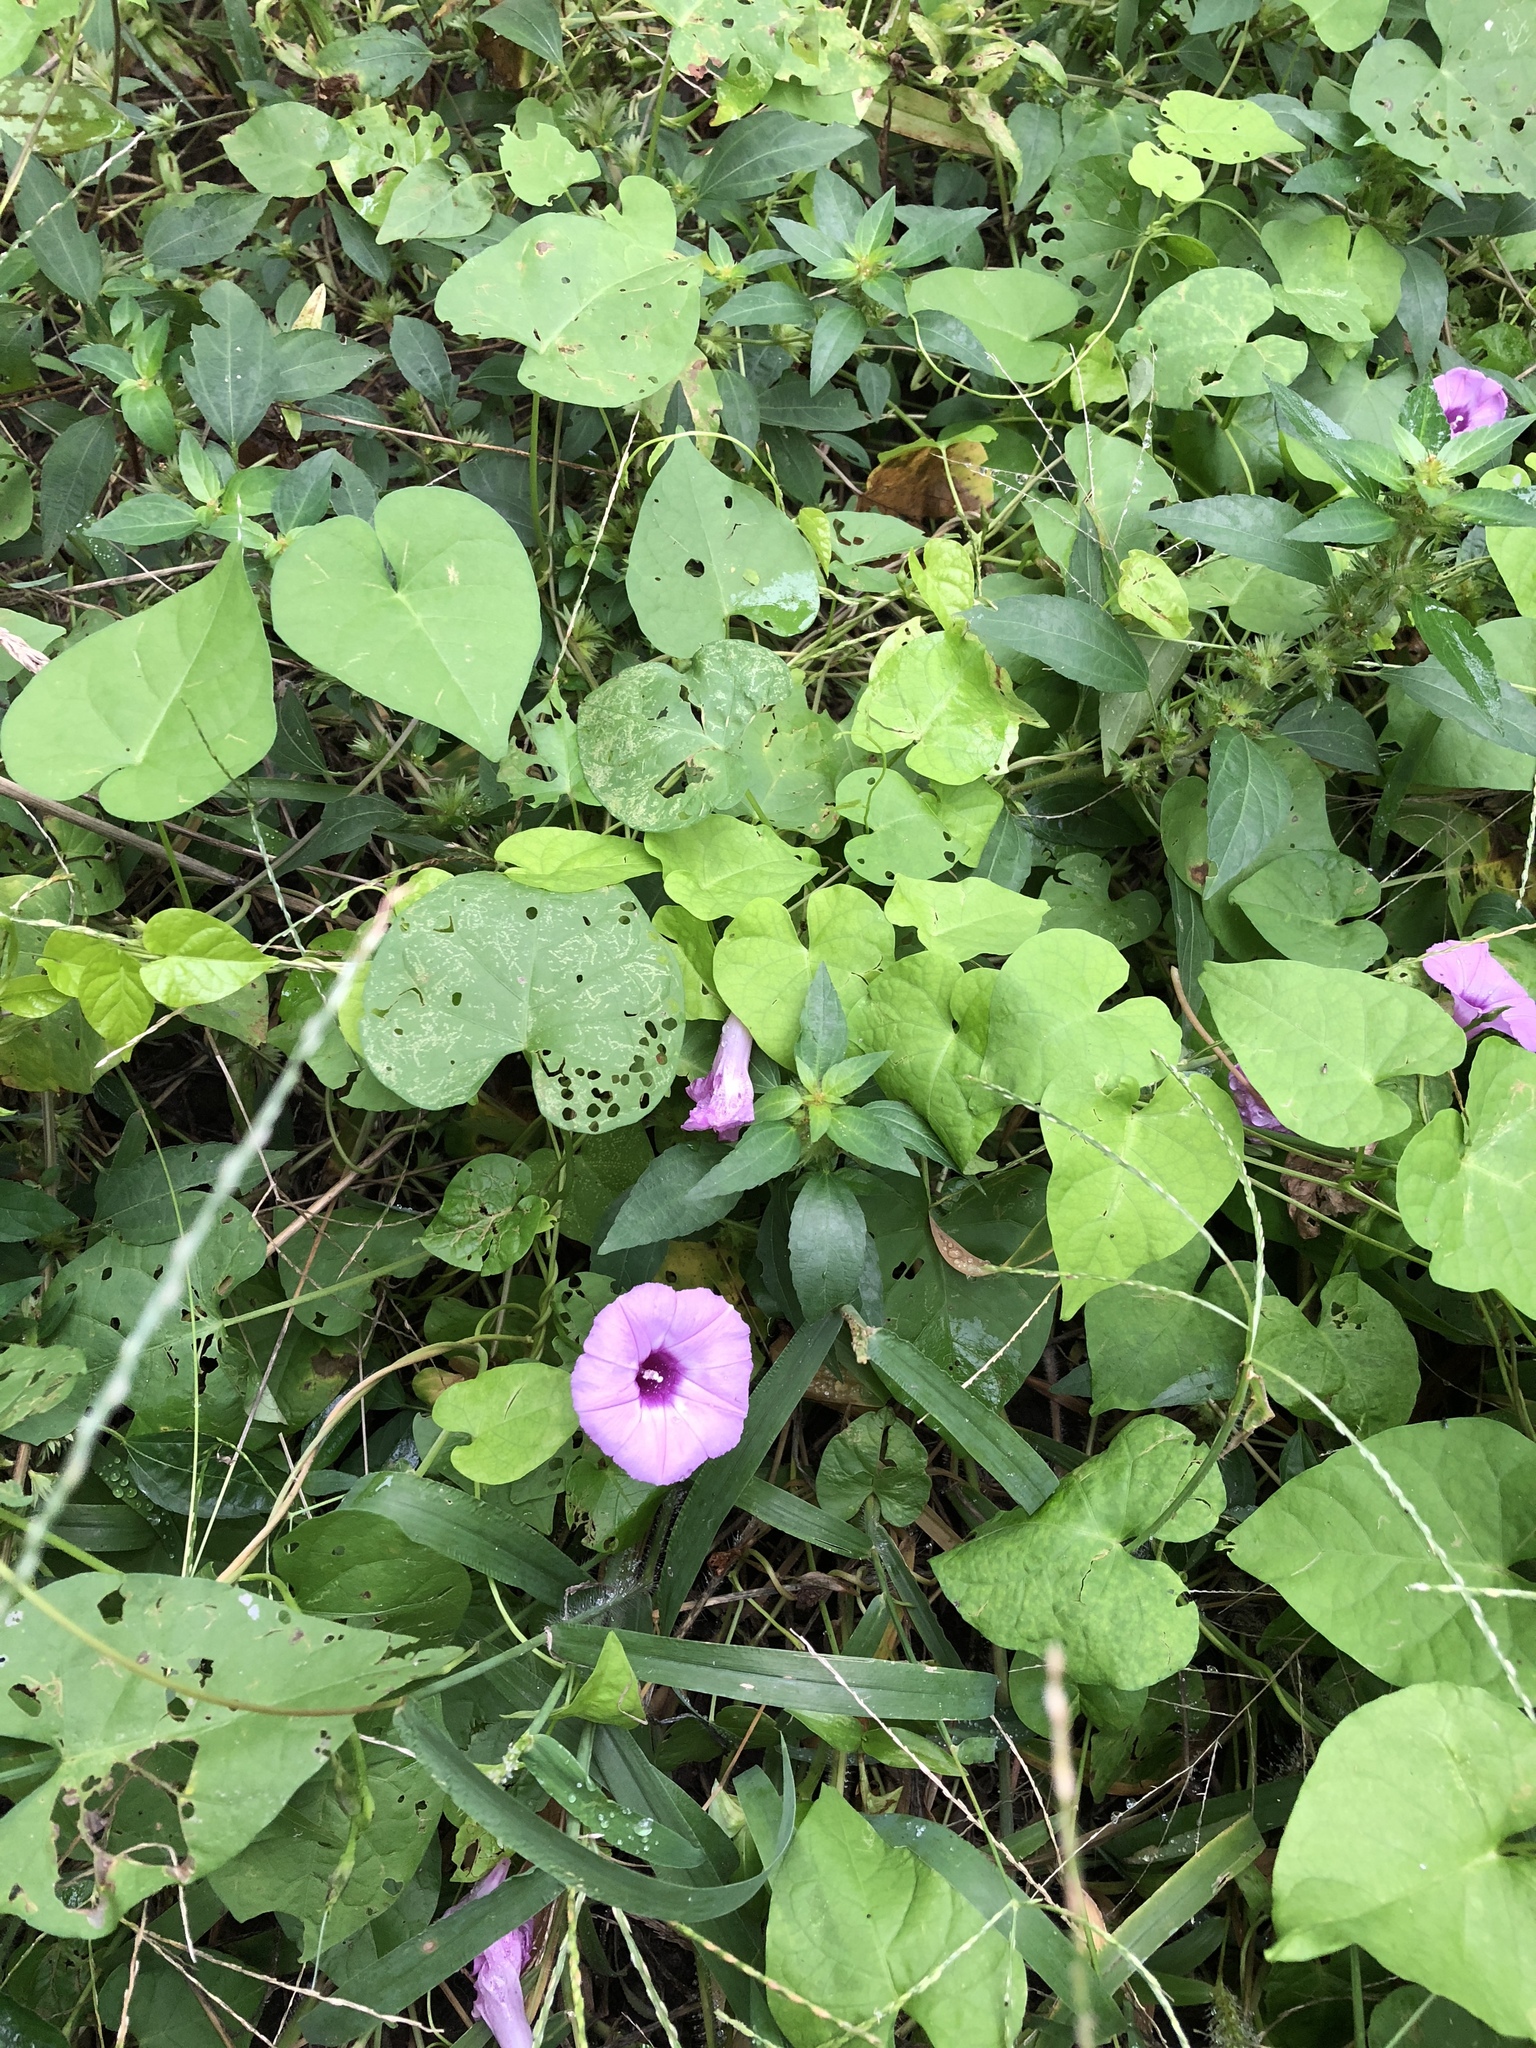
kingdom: Plantae
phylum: Tracheophyta
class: Magnoliopsida
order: Solanales
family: Convolvulaceae
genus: Ipomoea
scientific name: Ipomoea cordatotriloba
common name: Cotton morning glory
